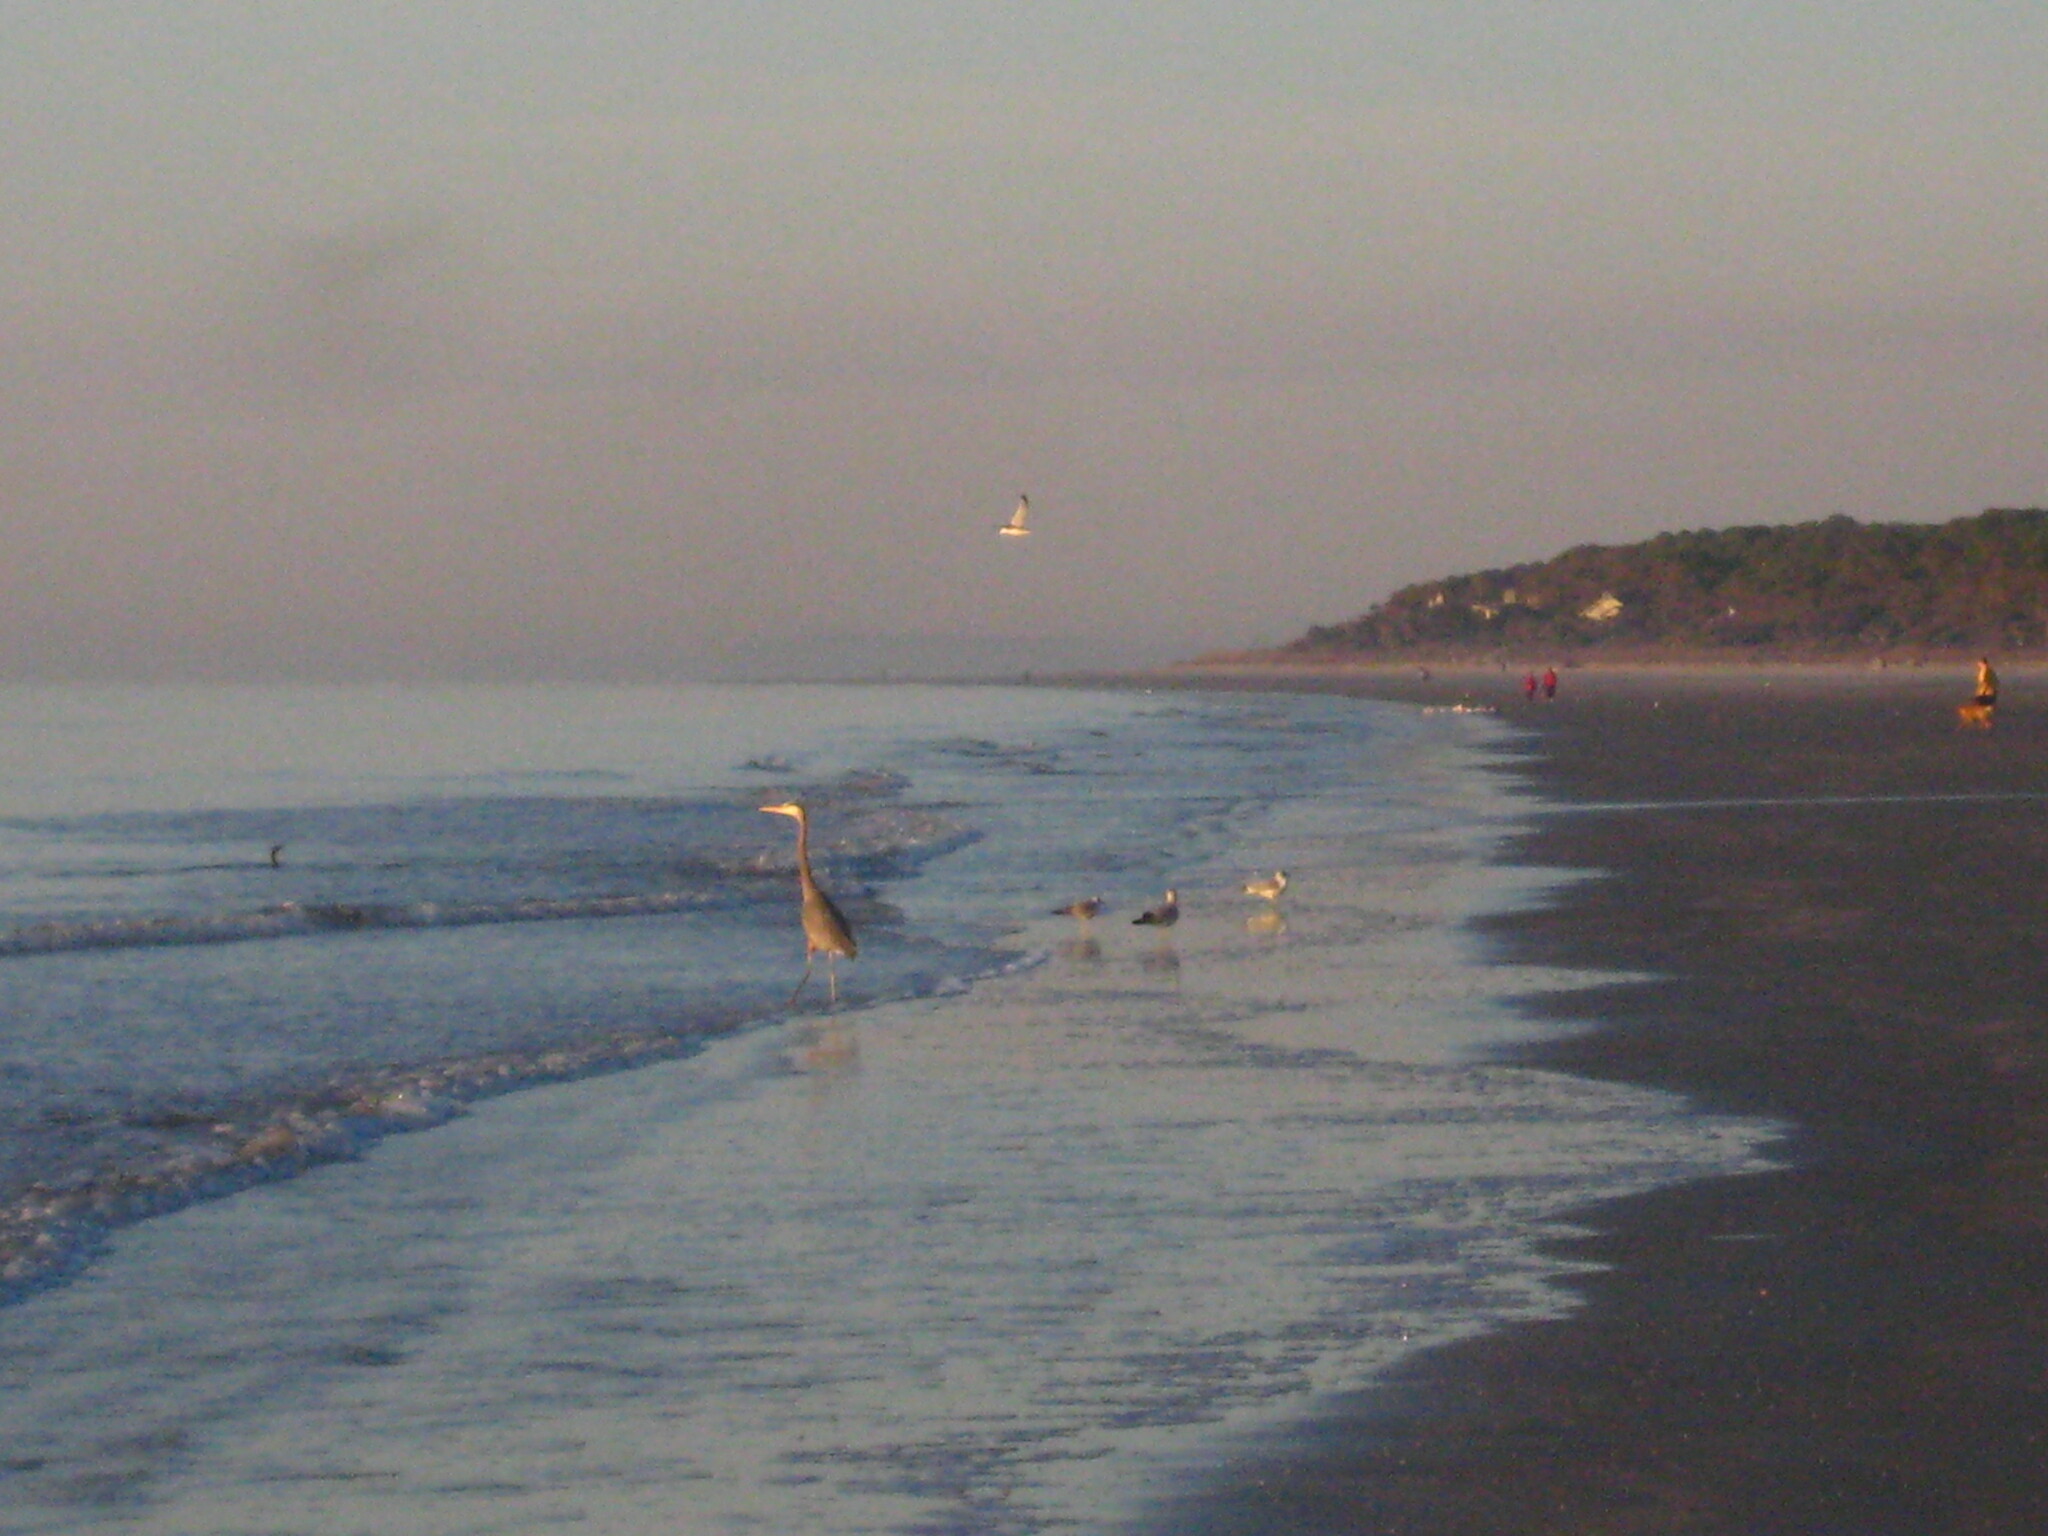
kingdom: Animalia
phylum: Chordata
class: Aves
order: Pelecaniformes
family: Ardeidae
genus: Ardea
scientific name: Ardea herodias
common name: Great blue heron
